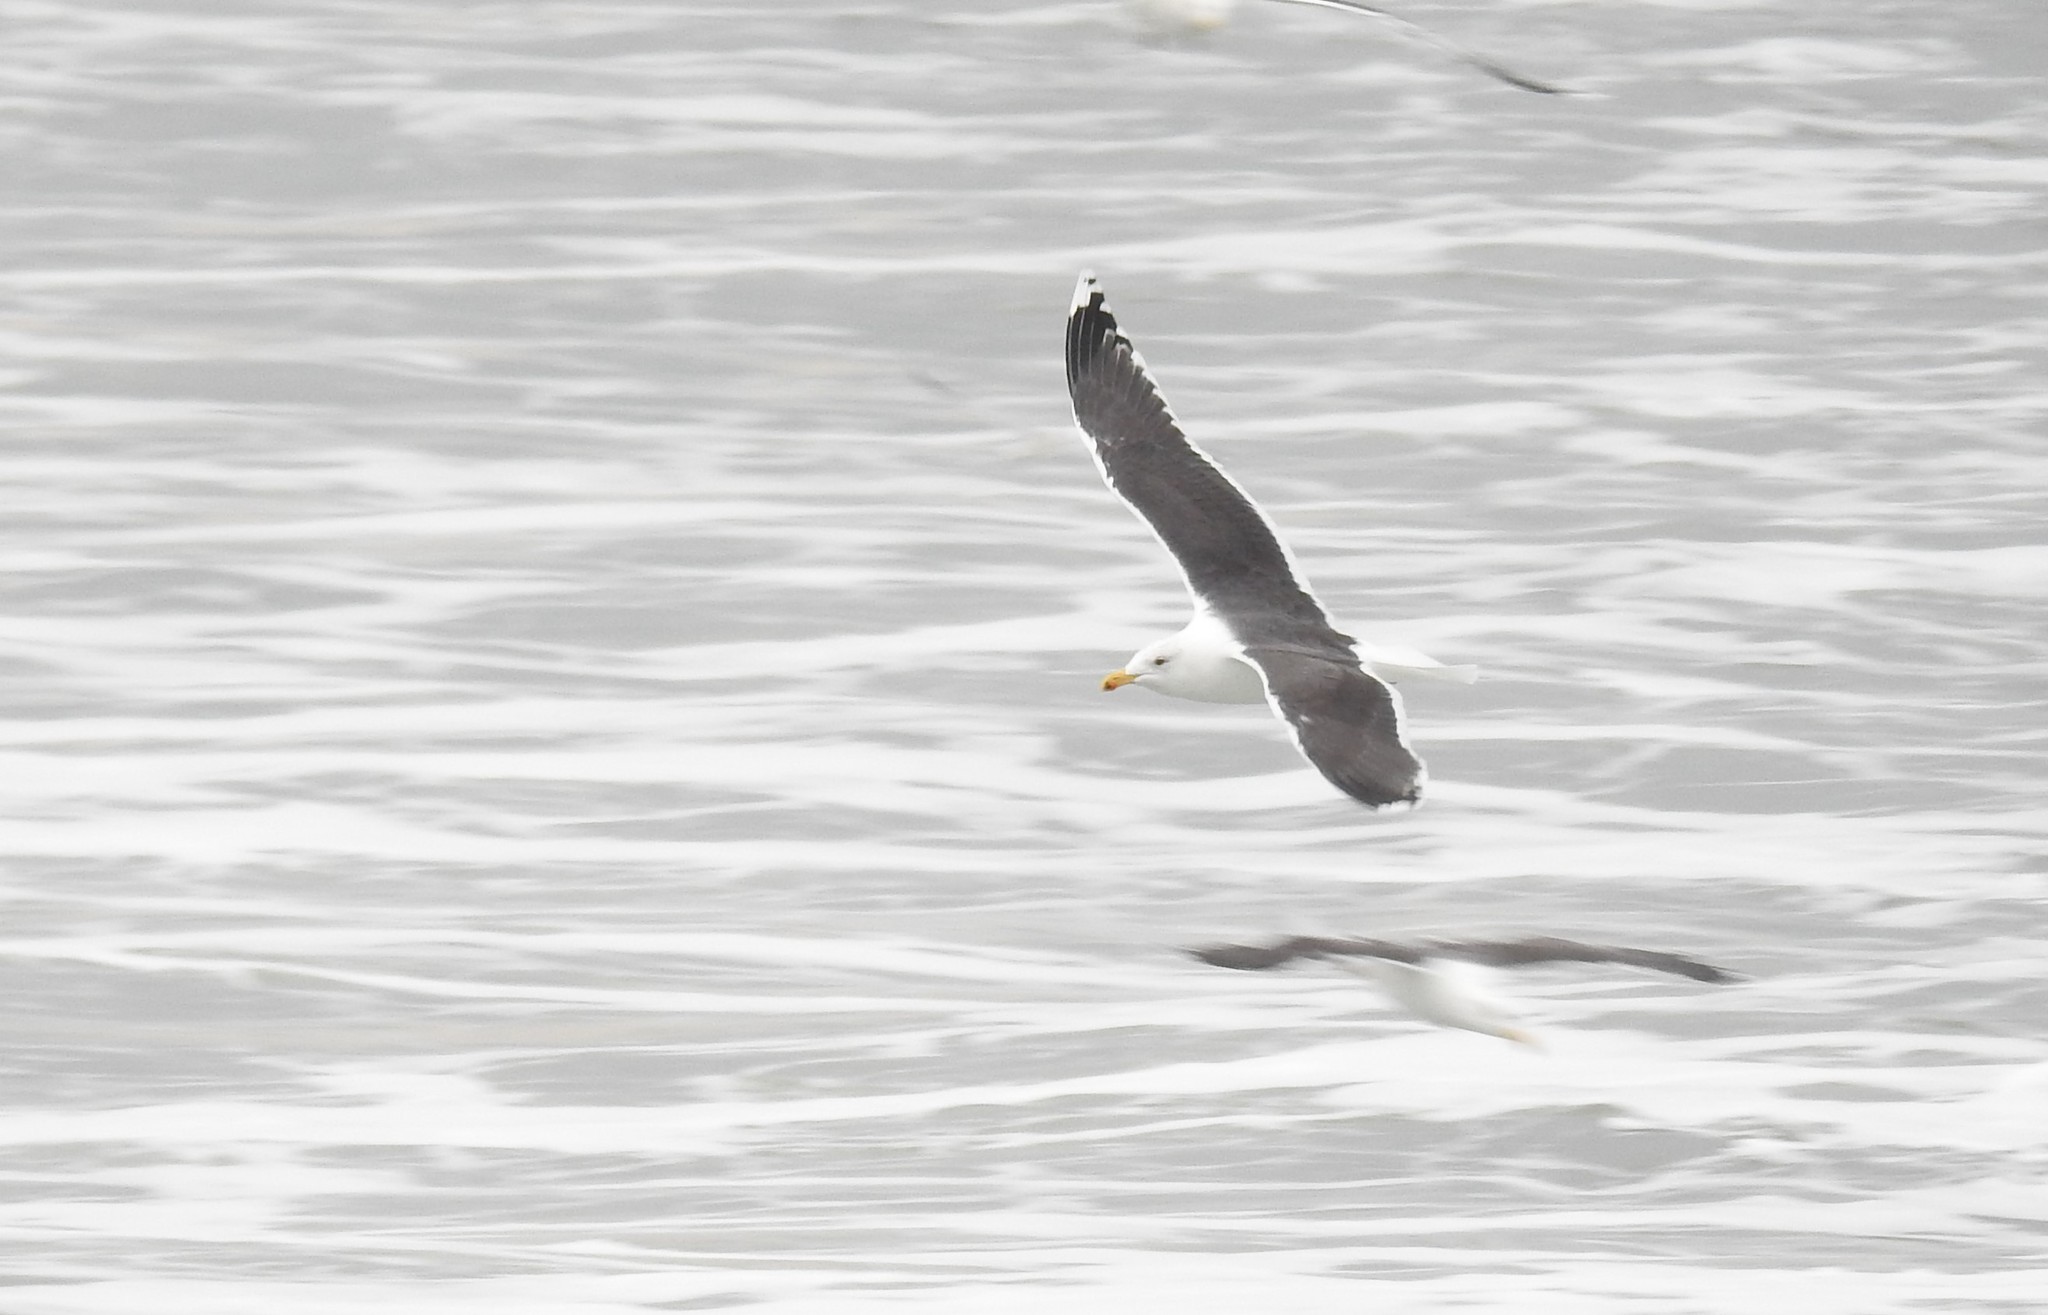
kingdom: Animalia
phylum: Chordata
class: Aves
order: Charadriiformes
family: Laridae
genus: Larus
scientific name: Larus marinus
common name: Great black-backed gull
